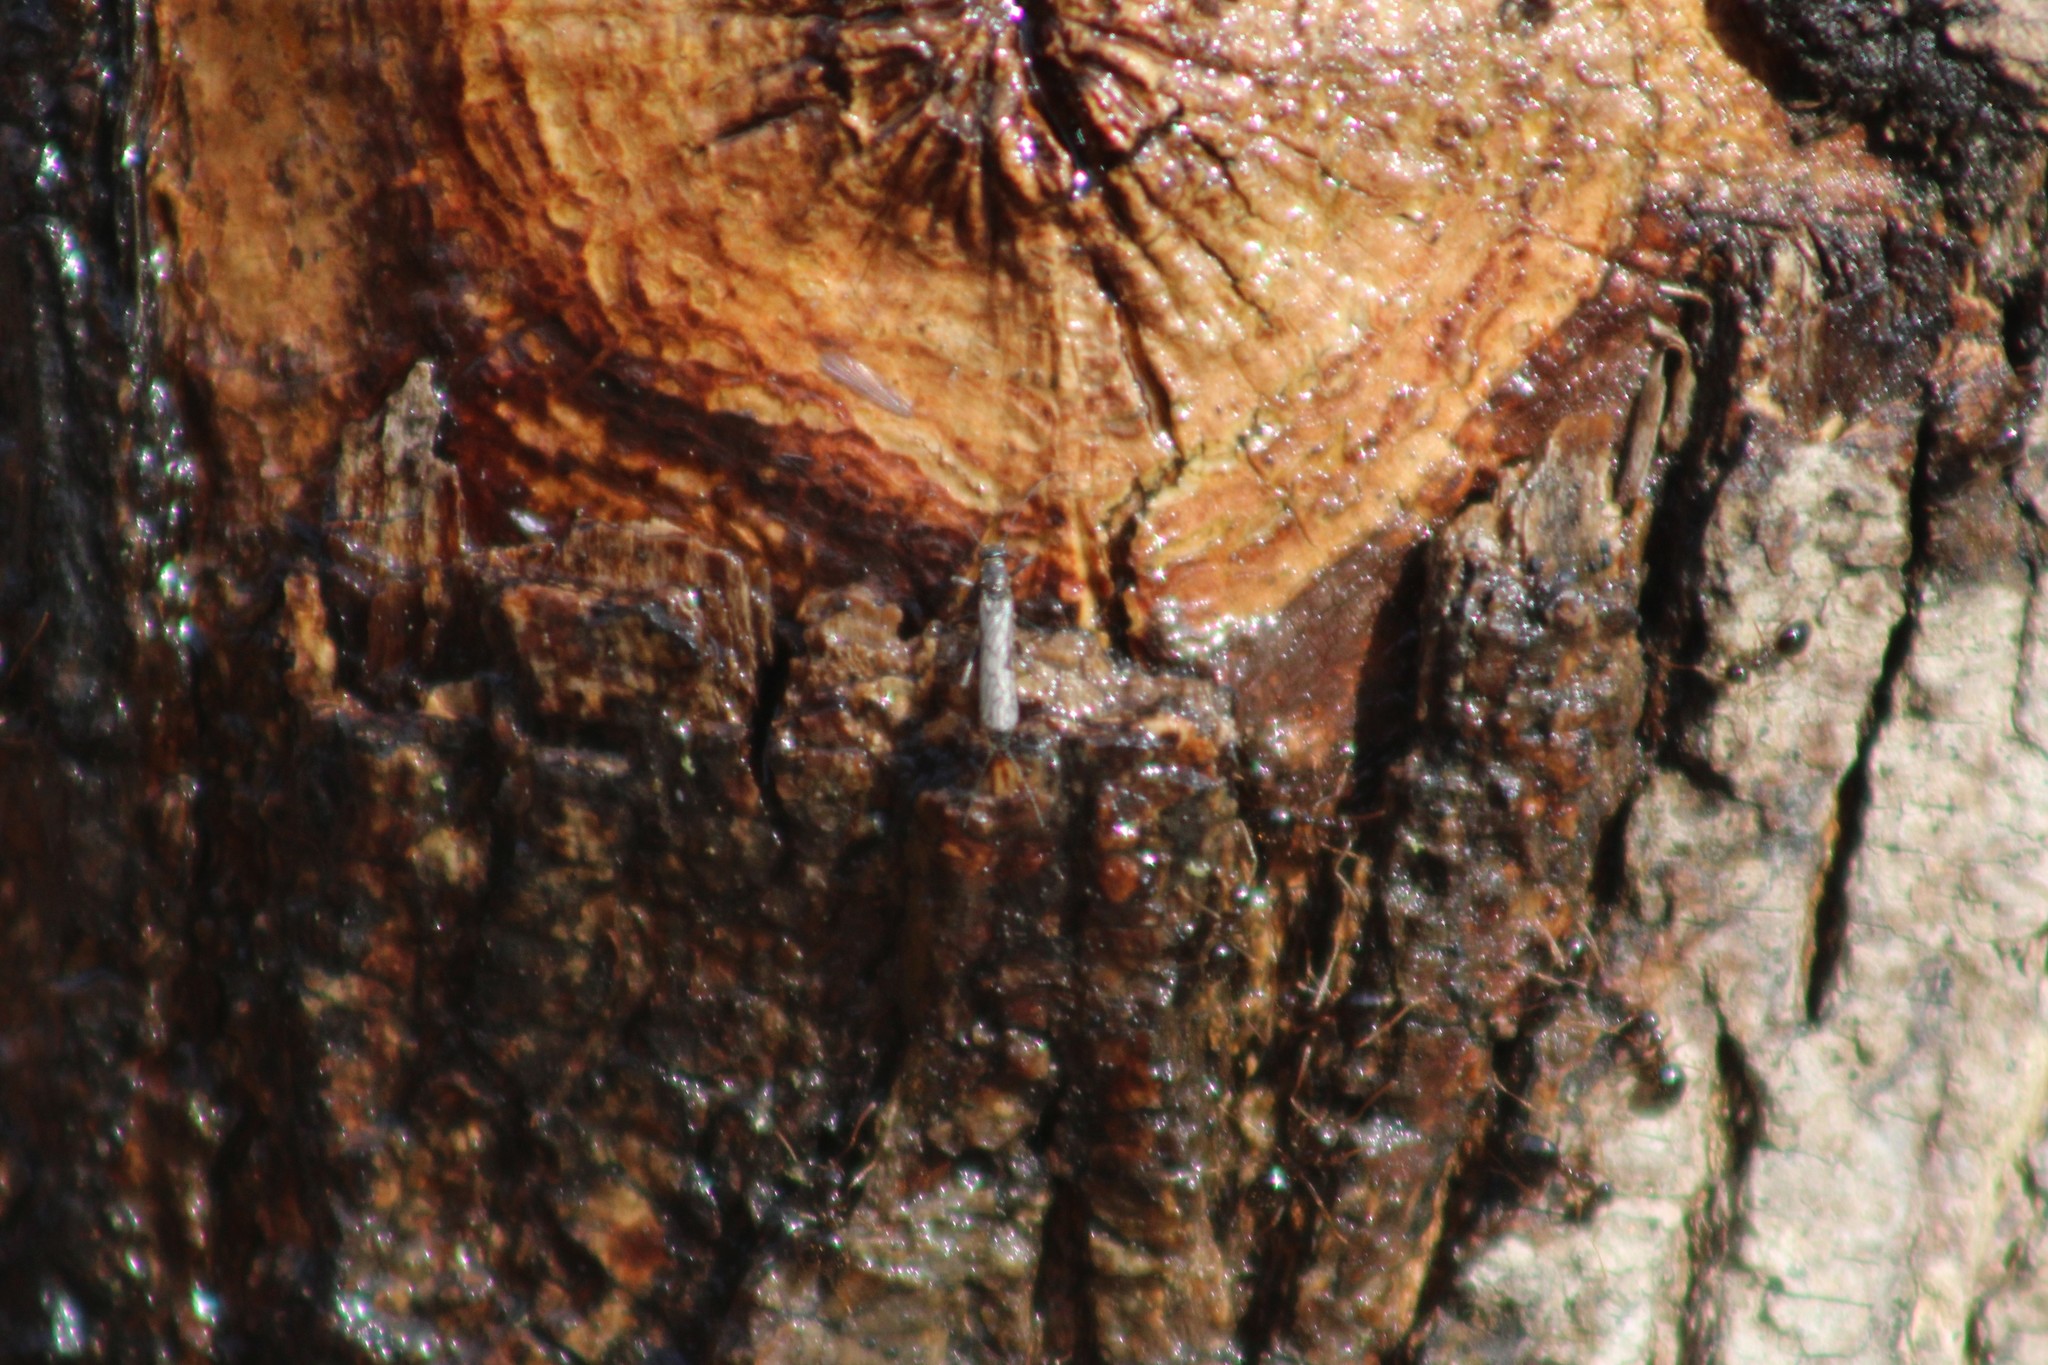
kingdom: Animalia
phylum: Arthropoda
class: Insecta
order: Hymenoptera
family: Formicidae
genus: Prenolepis
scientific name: Prenolepis imparis
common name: Small honey ant
